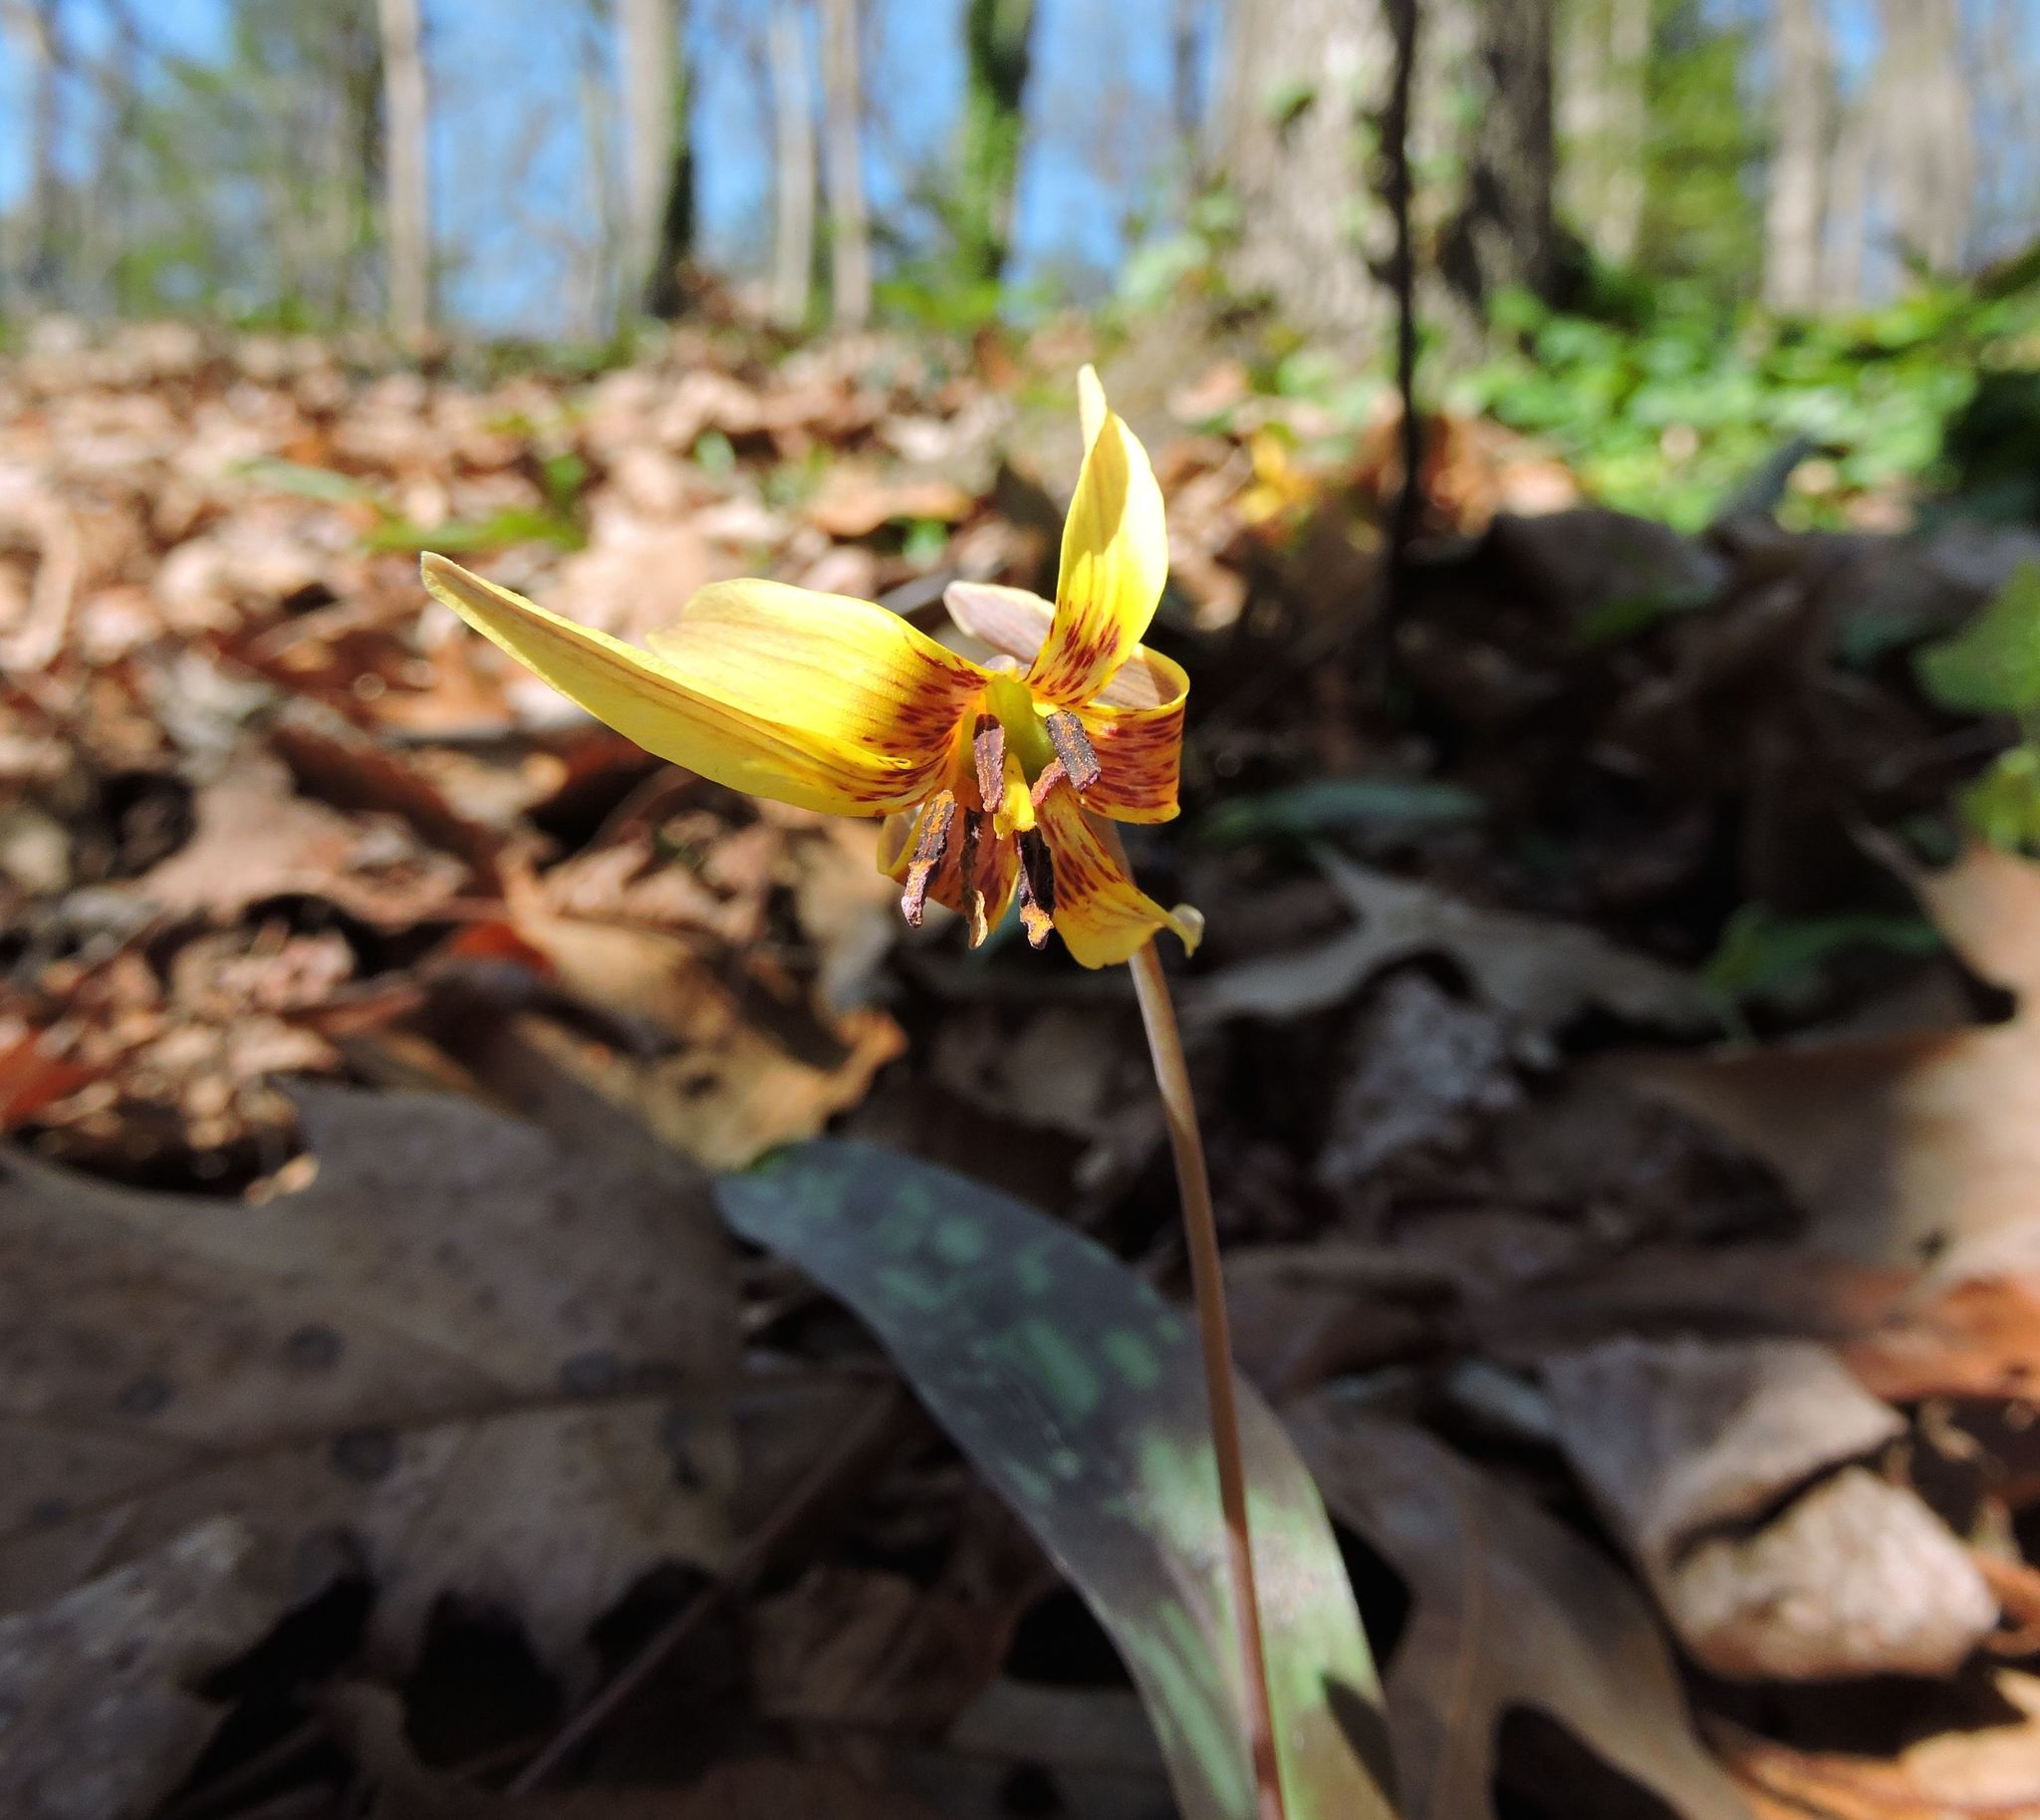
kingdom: Plantae
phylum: Tracheophyta
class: Liliopsida
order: Liliales
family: Liliaceae
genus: Erythronium
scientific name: Erythronium americanum
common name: Yellow adder's-tongue
